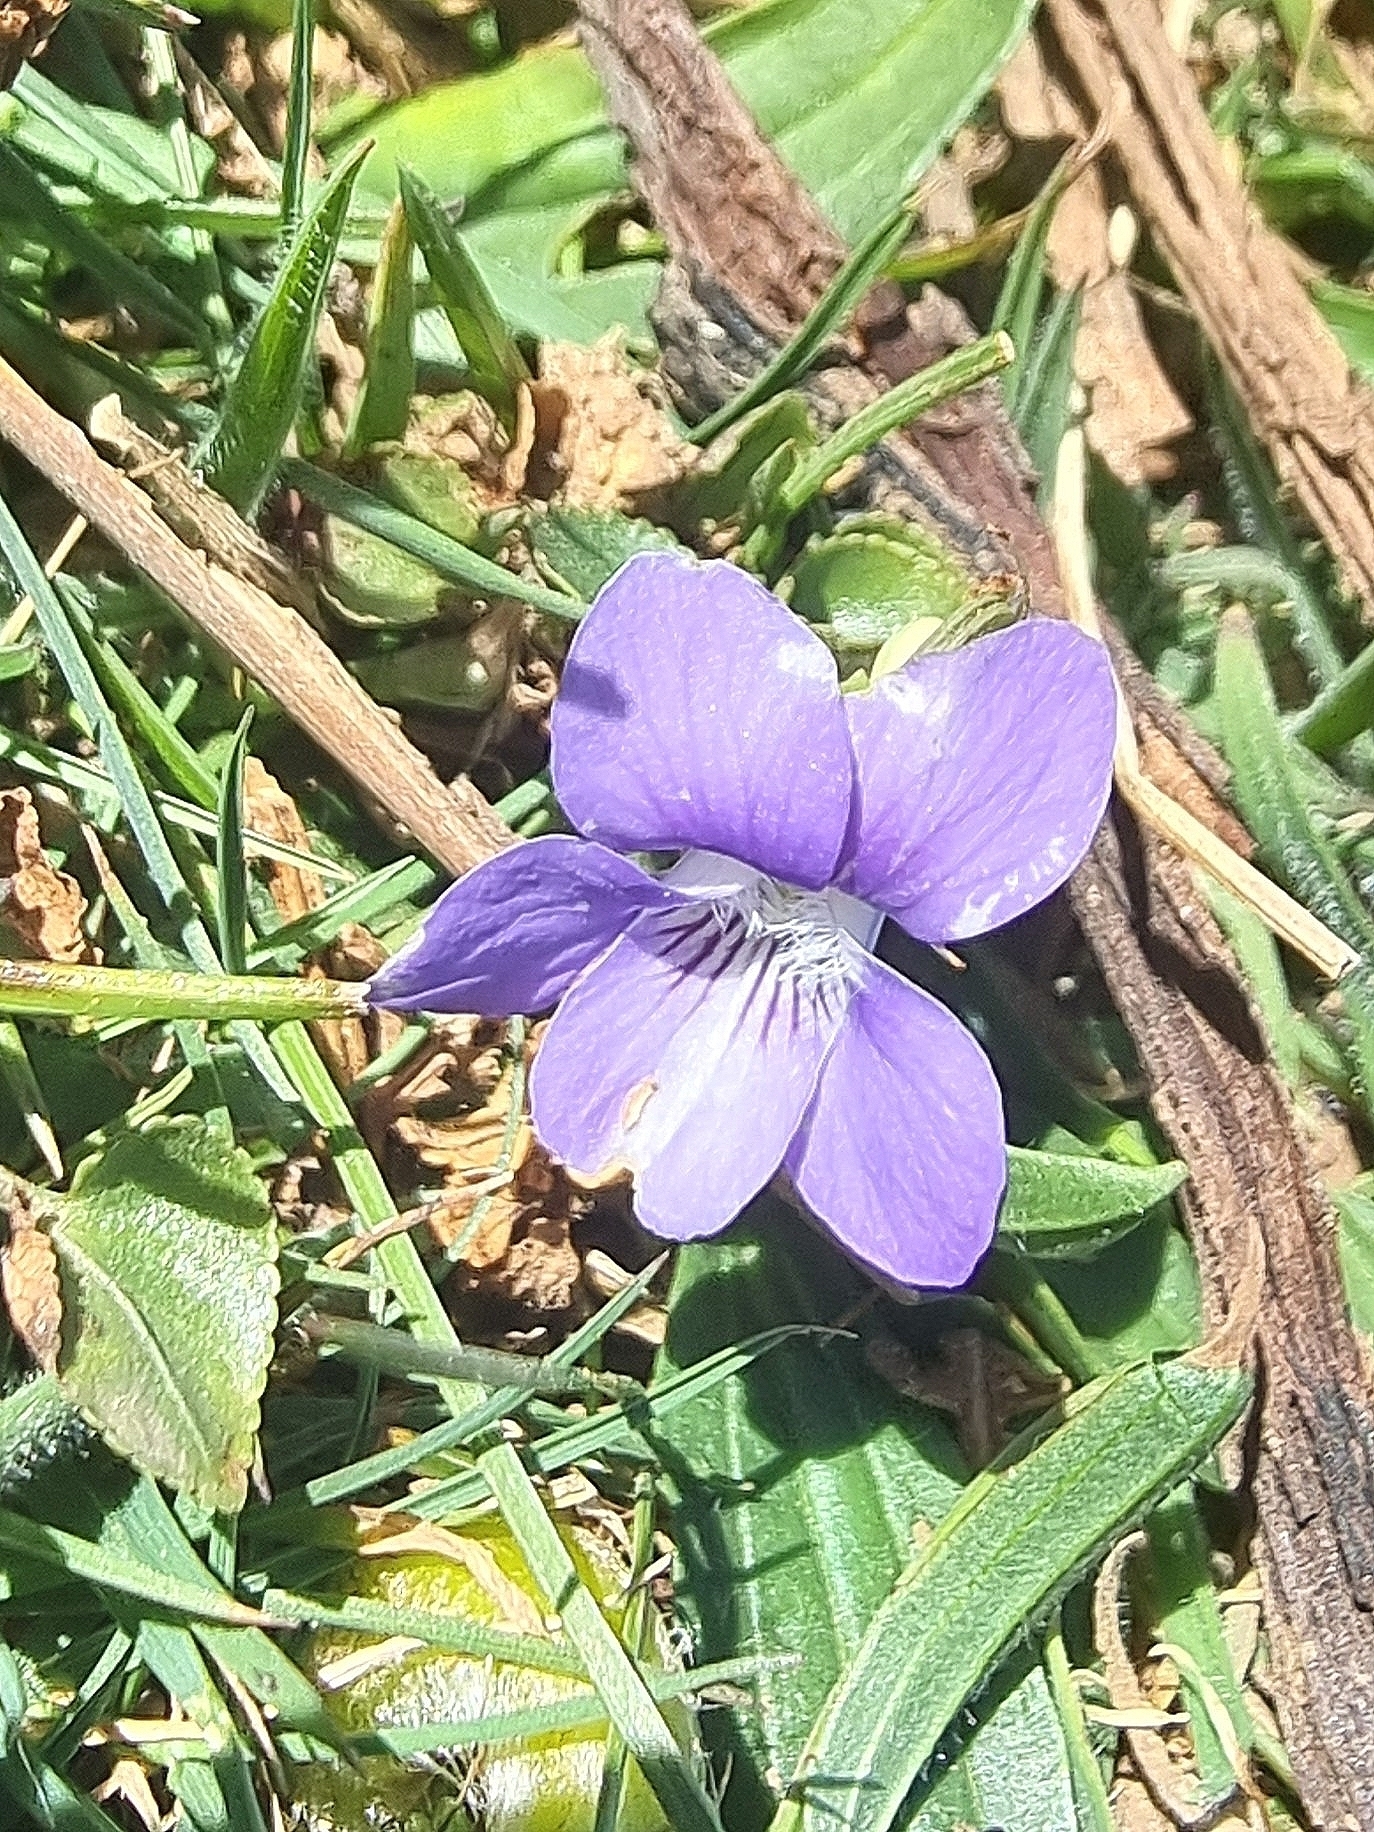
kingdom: Plantae
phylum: Tracheophyta
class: Magnoliopsida
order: Malpighiales
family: Violaceae
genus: Viola
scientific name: Viola riviniana
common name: Common dog-violet
